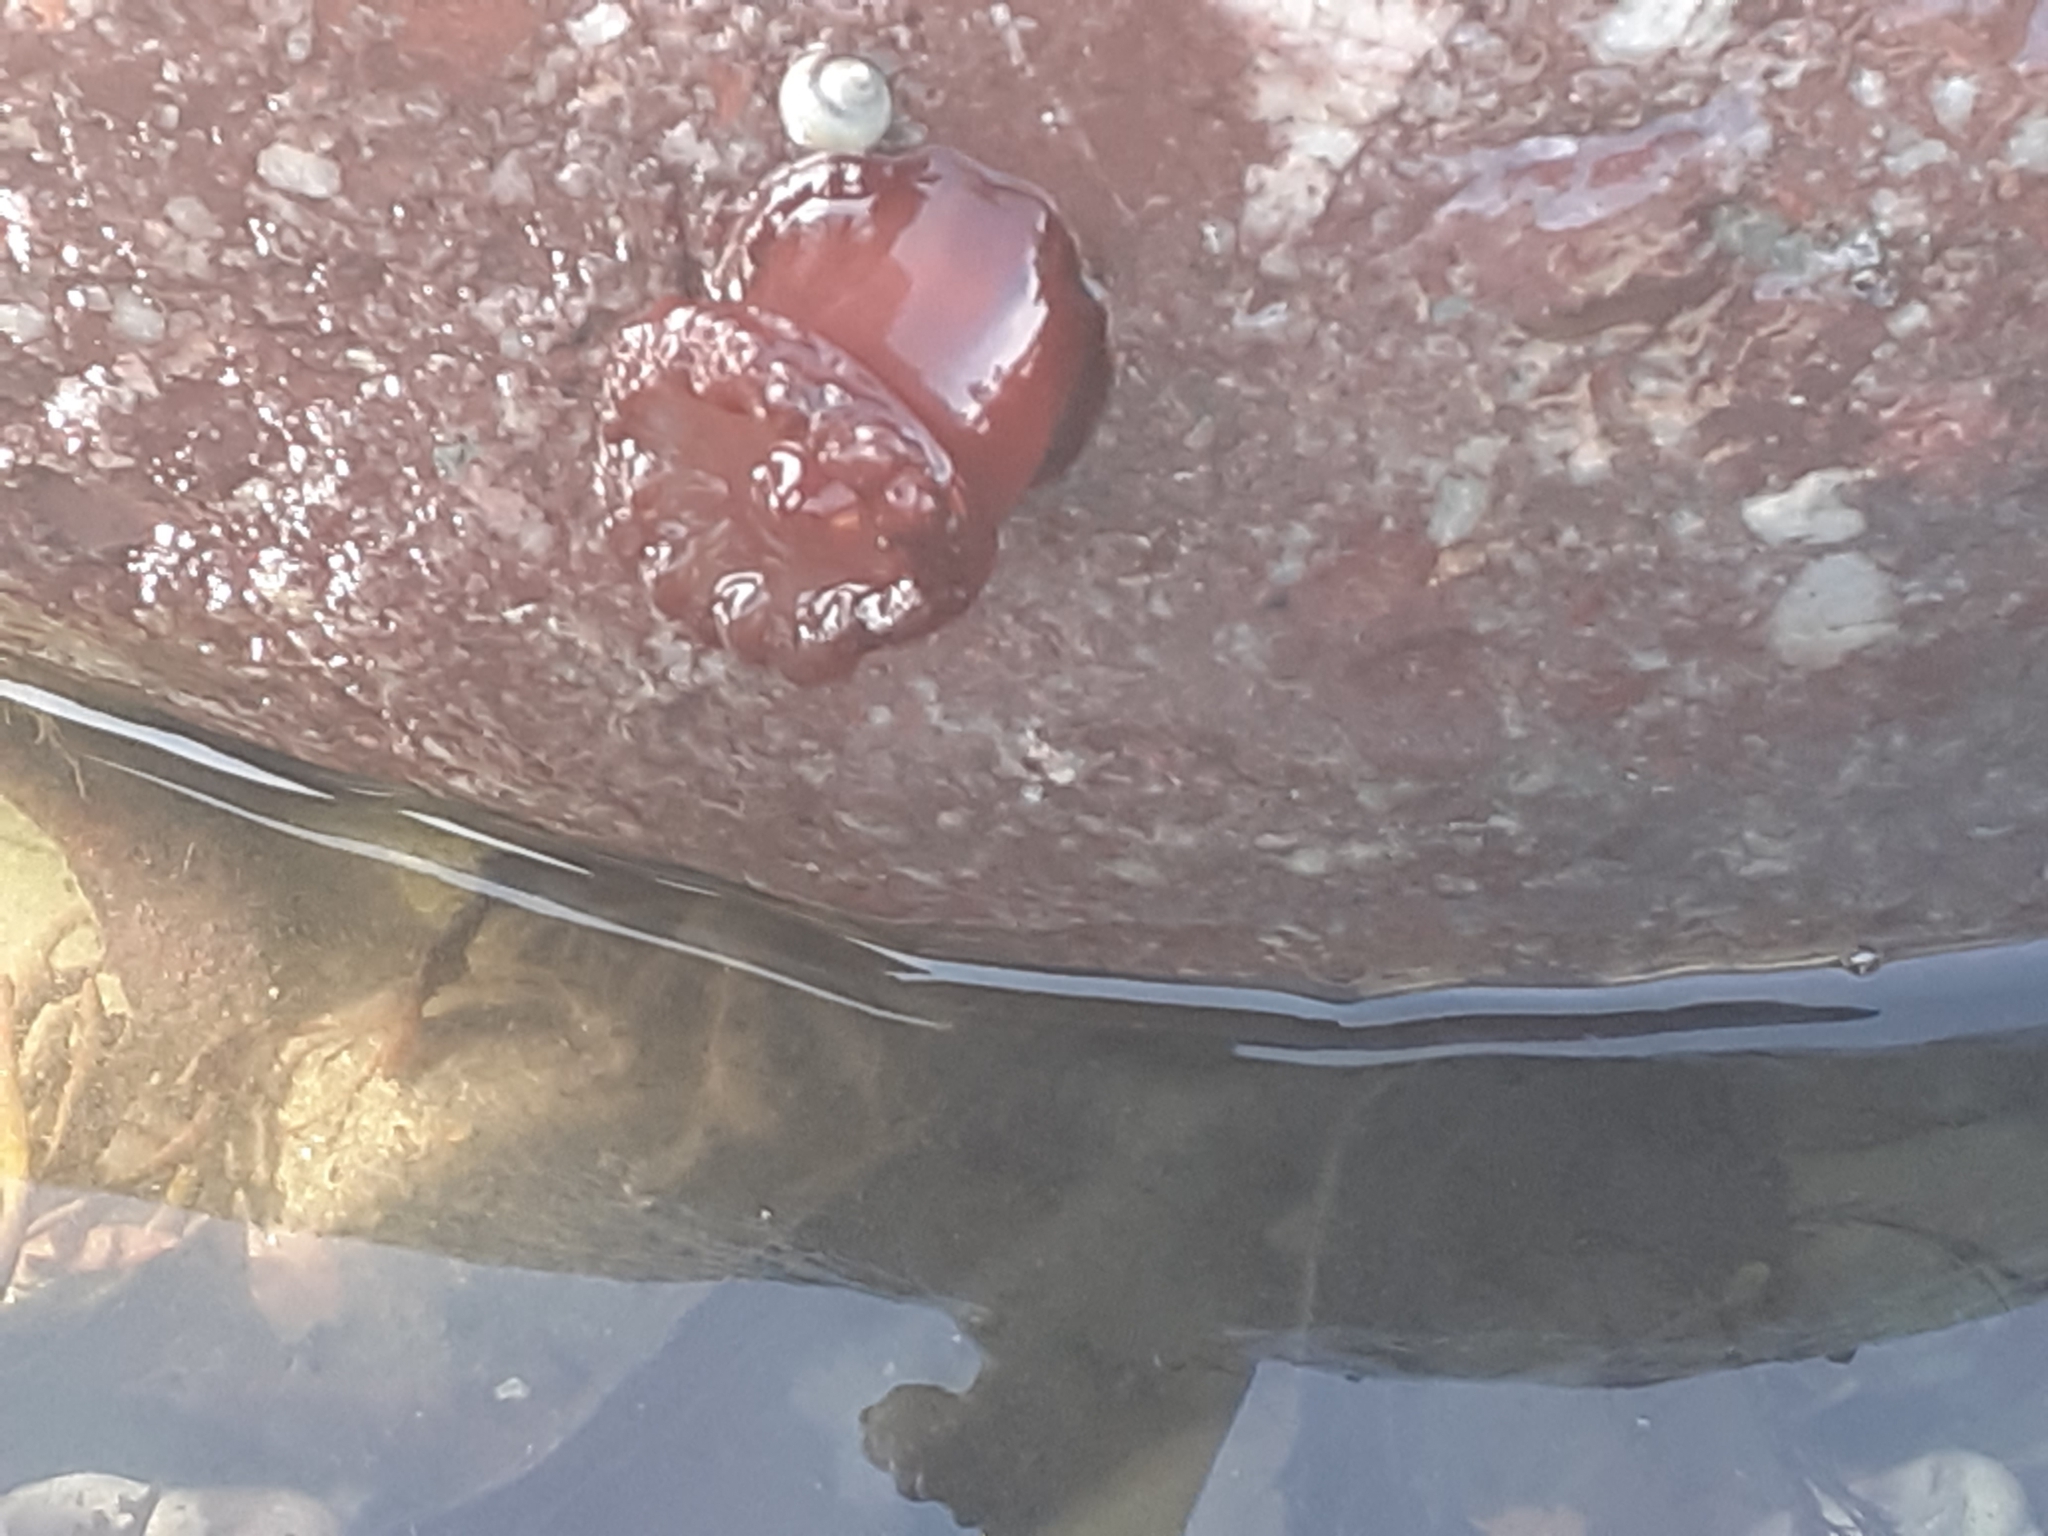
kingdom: Animalia
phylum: Cnidaria
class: Anthozoa
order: Actiniaria
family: Actiniidae
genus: Actinia
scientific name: Actinia equina
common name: Beadlet anemone
